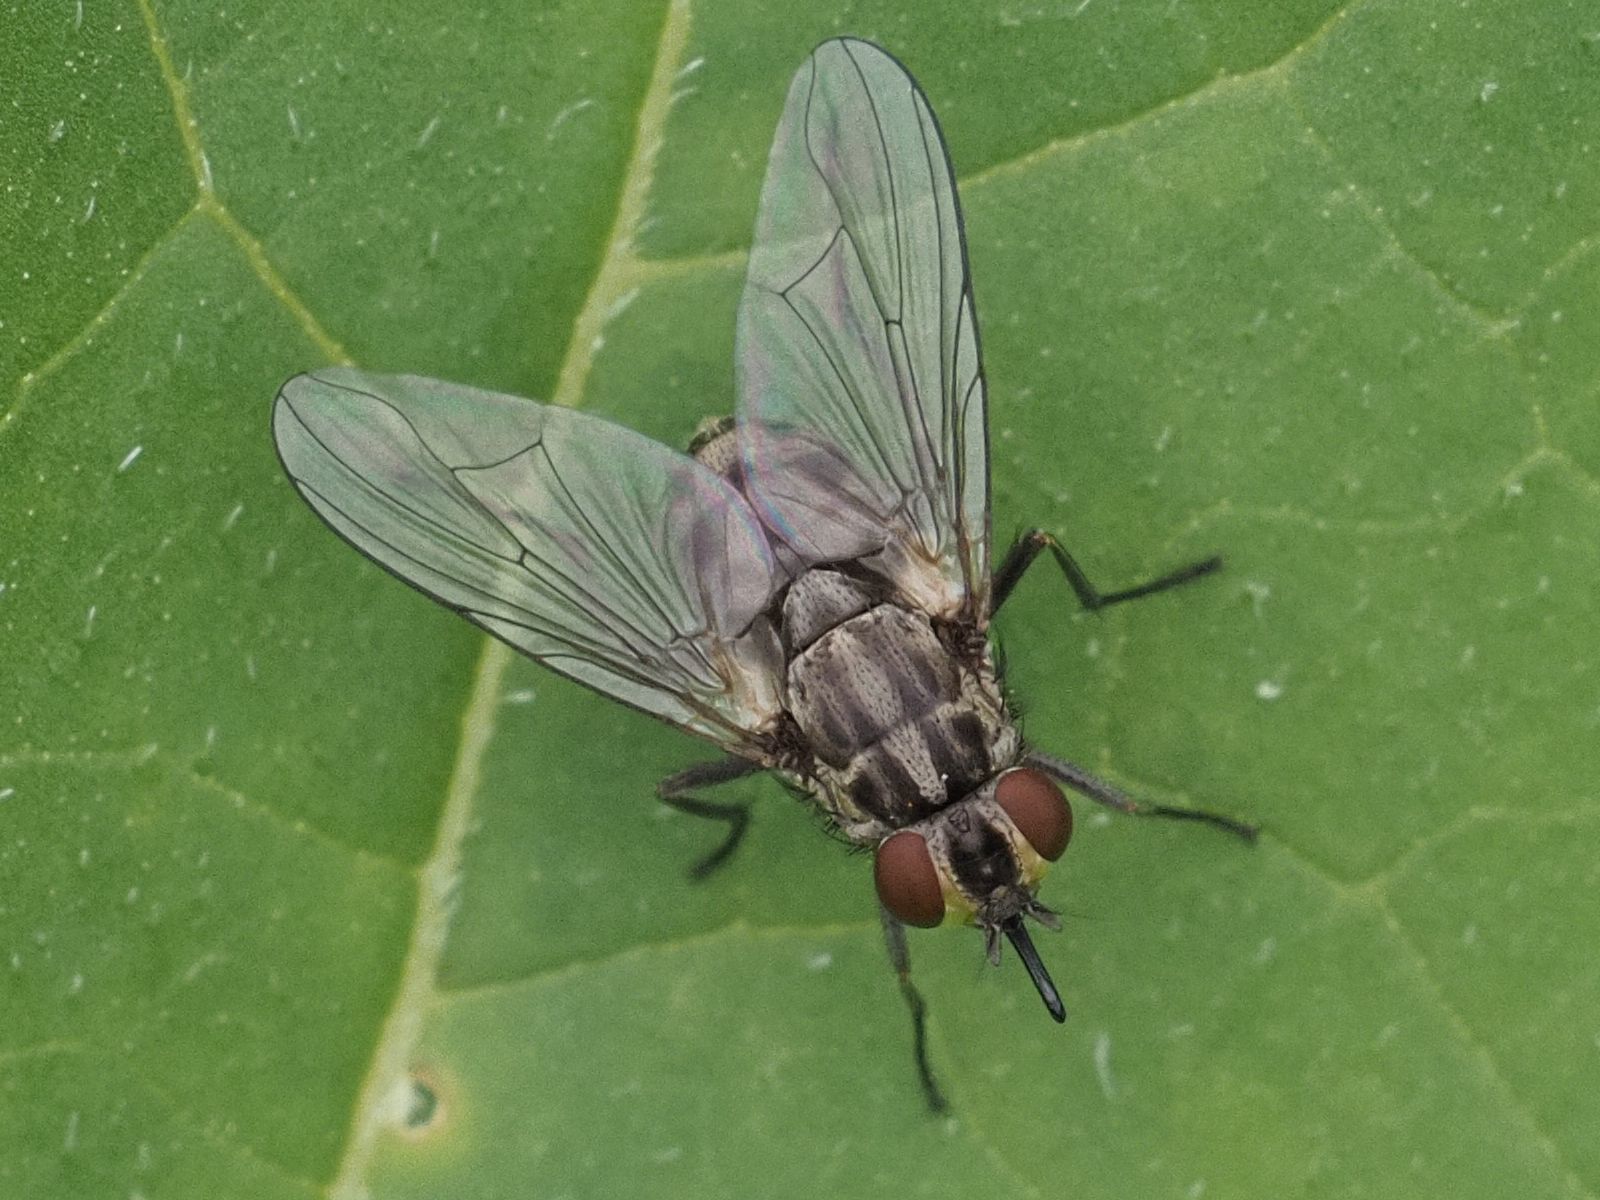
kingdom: Animalia
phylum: Arthropoda
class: Insecta
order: Diptera
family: Muscidae
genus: Stomoxys
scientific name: Stomoxys calcitrans
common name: Stable fly
